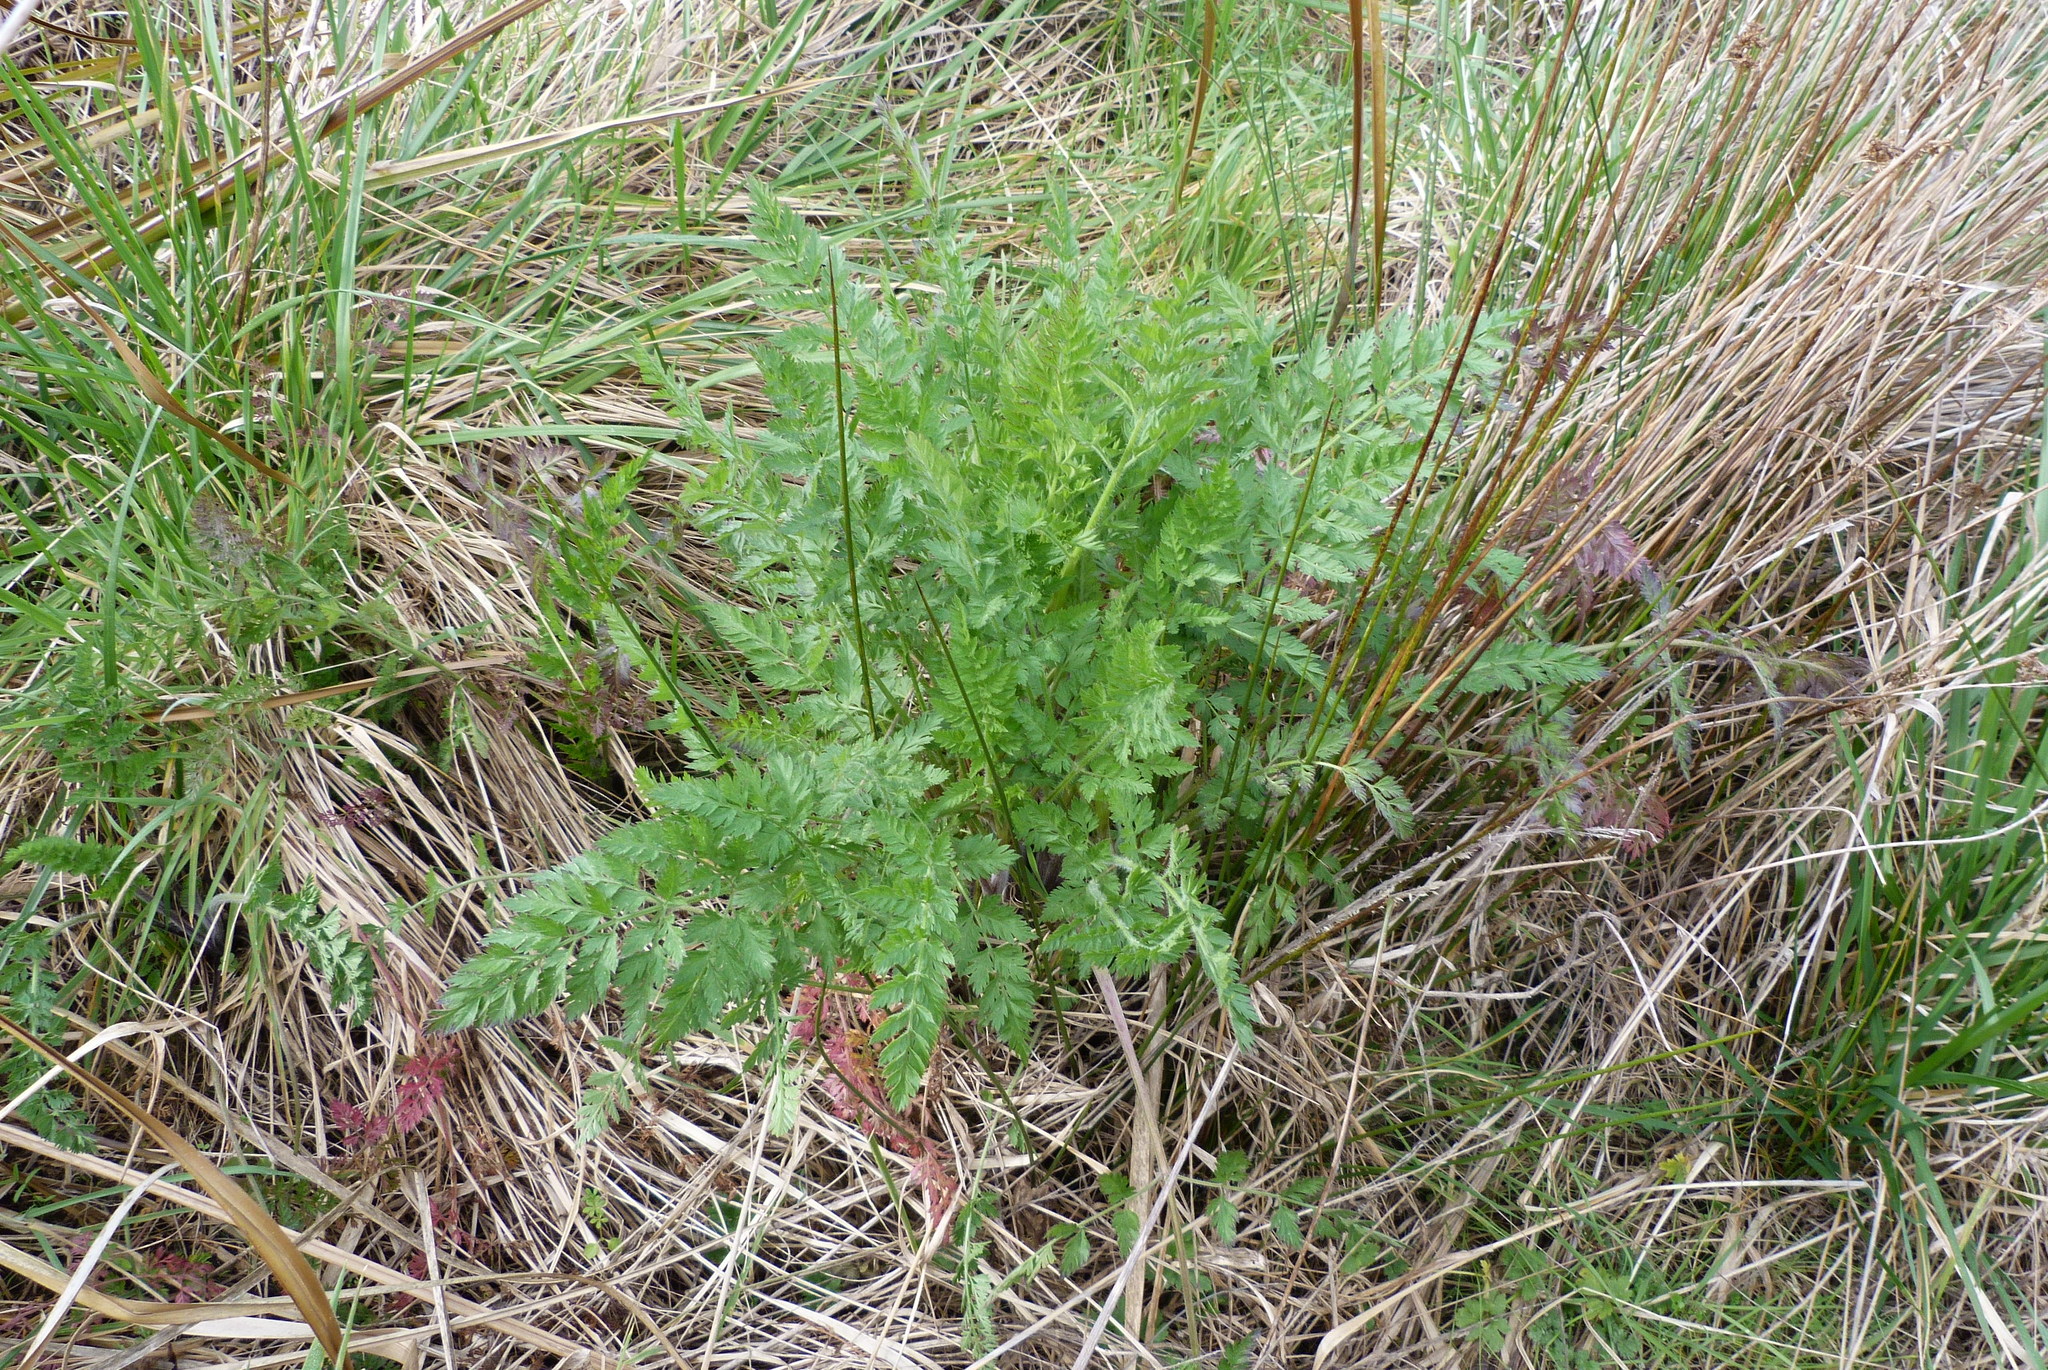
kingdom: Plantae
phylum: Tracheophyta
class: Magnoliopsida
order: Apiales
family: Apiaceae
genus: Daucus
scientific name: Daucus carota
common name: Wild carrot
